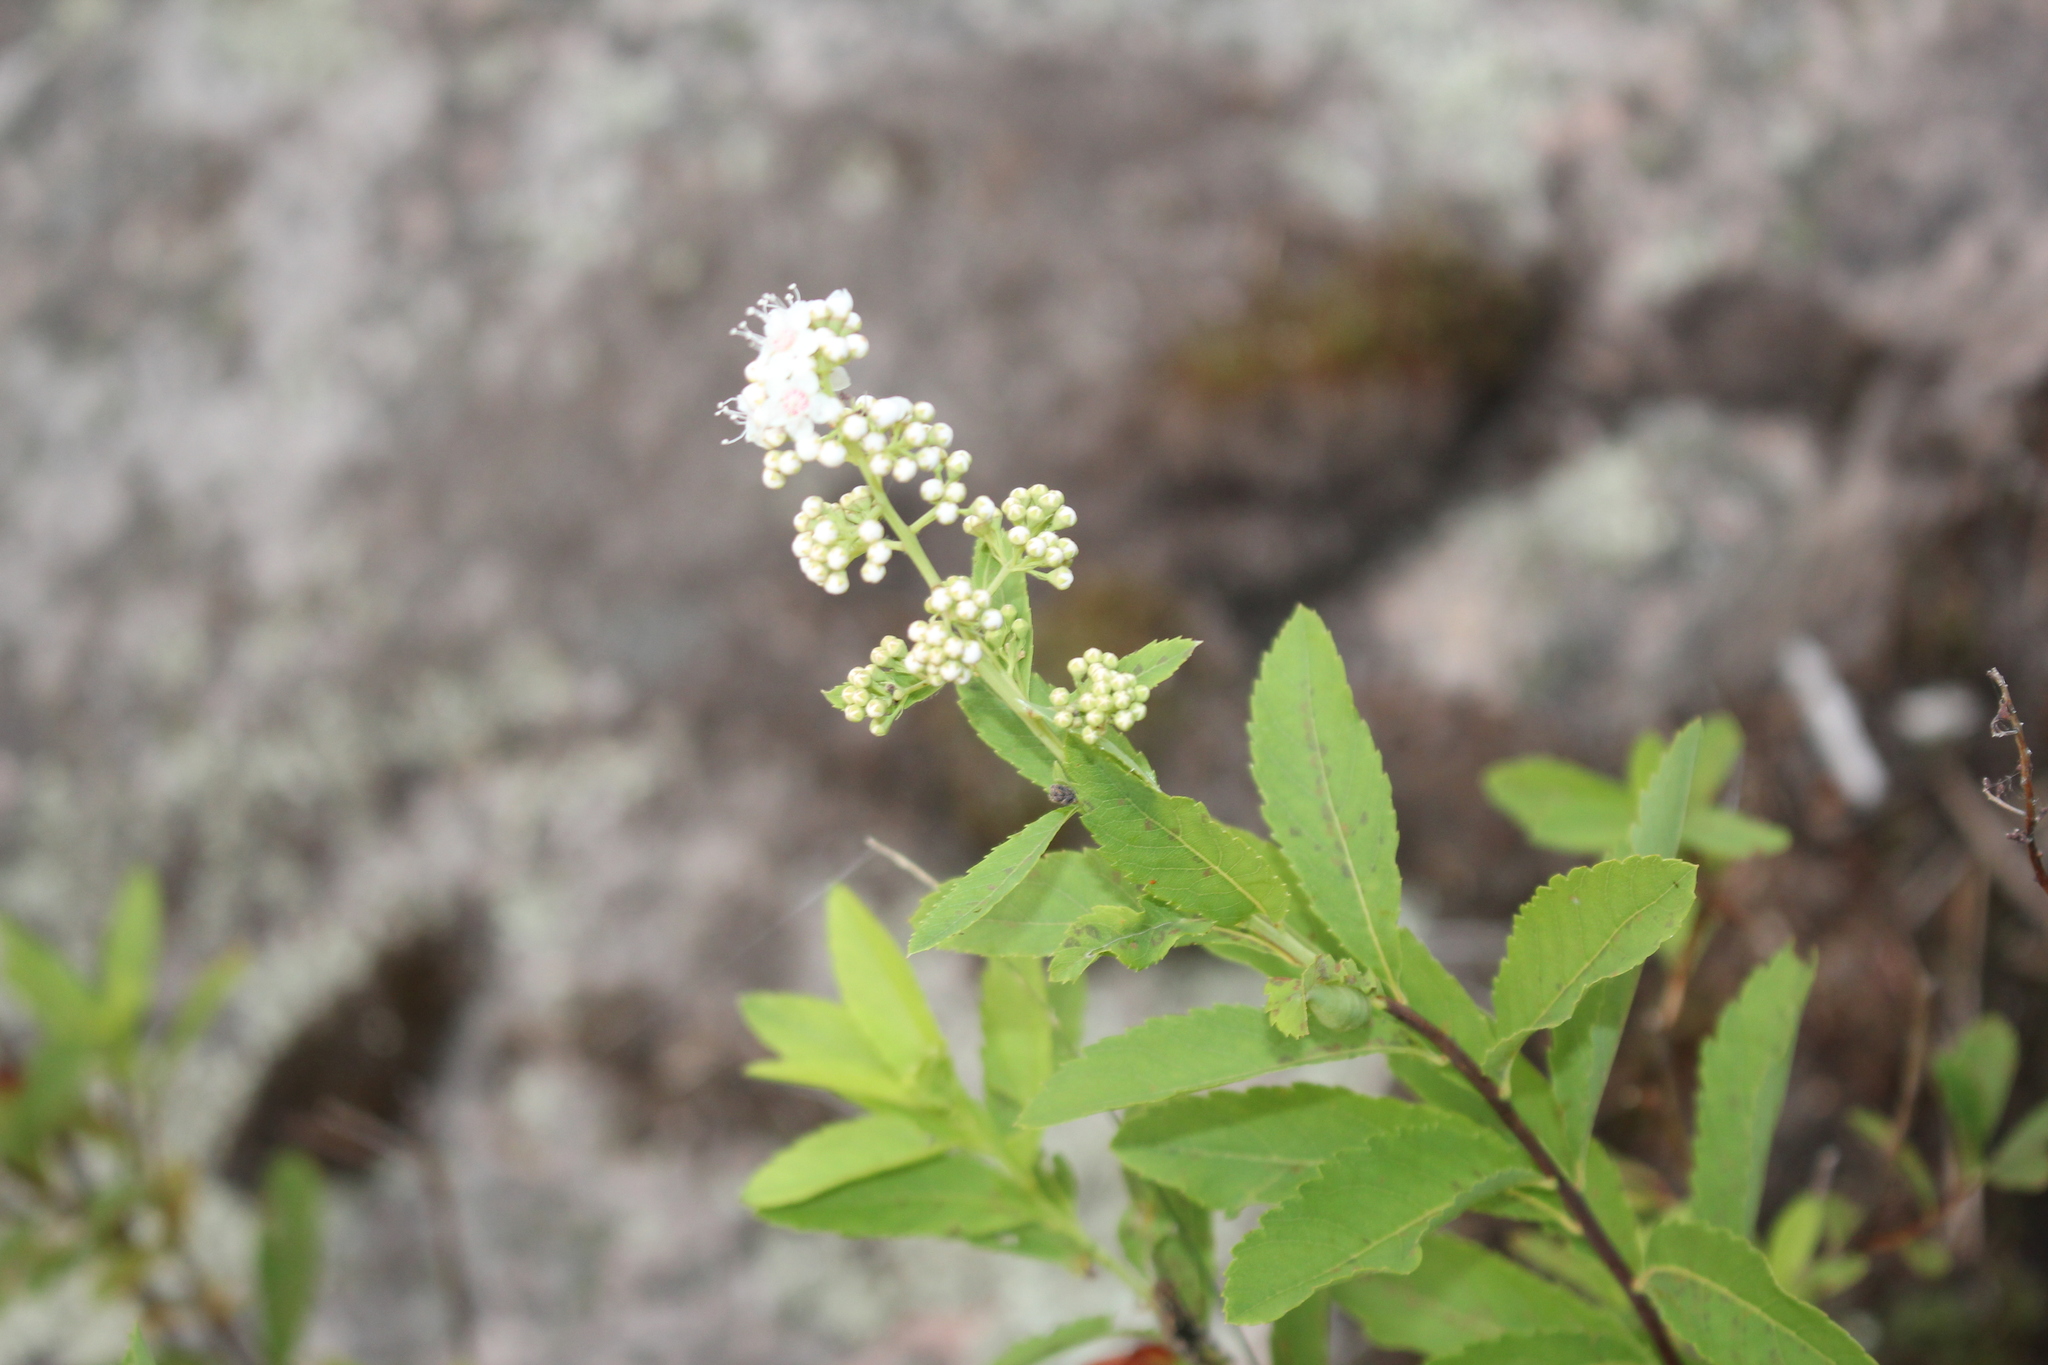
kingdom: Plantae
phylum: Tracheophyta
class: Magnoliopsida
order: Rosales
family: Rosaceae
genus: Spiraea
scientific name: Spiraea alba
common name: Pale bridewort
